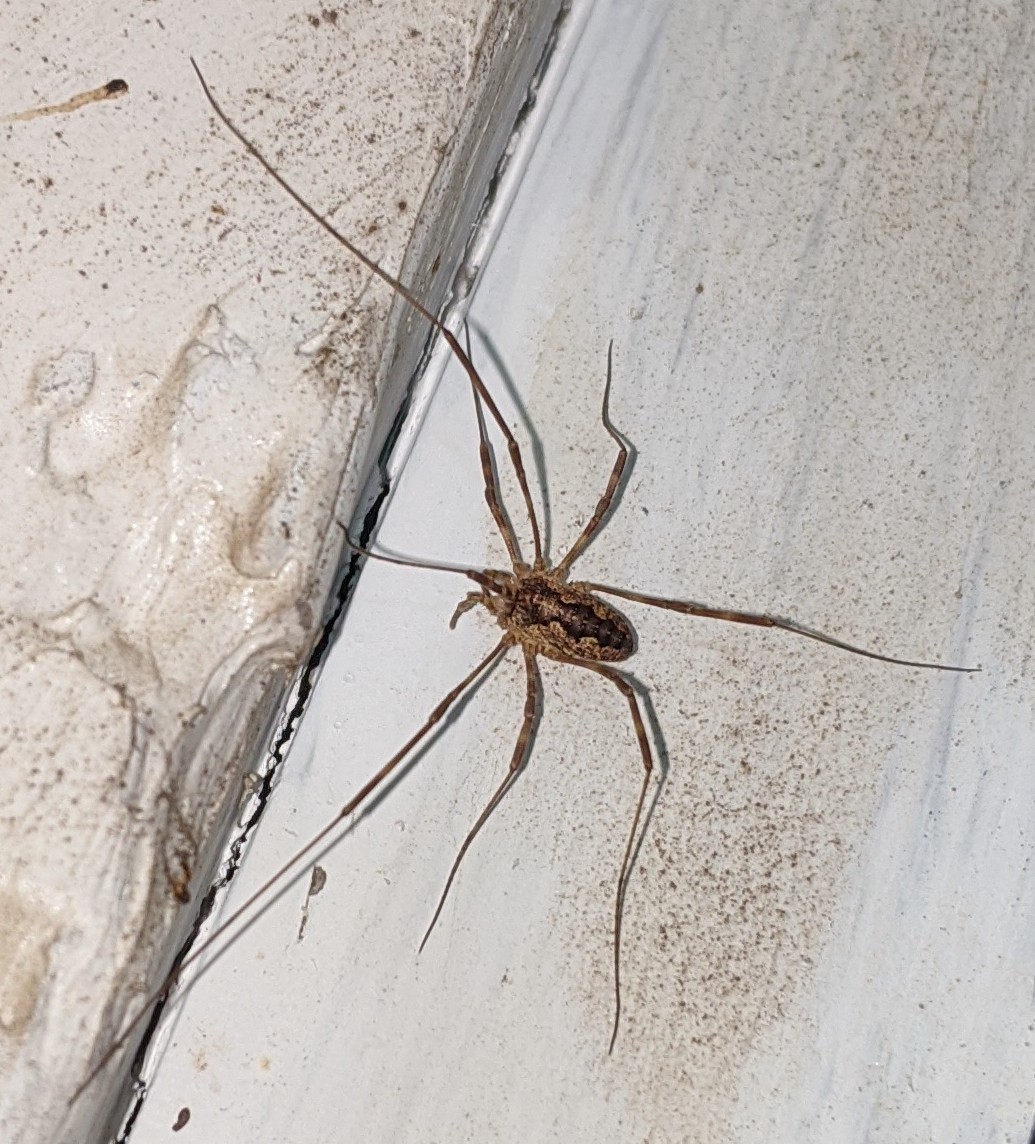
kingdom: Animalia
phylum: Arthropoda
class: Arachnida
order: Opiliones
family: Phalangiidae
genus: Odiellus
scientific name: Odiellus pictus
